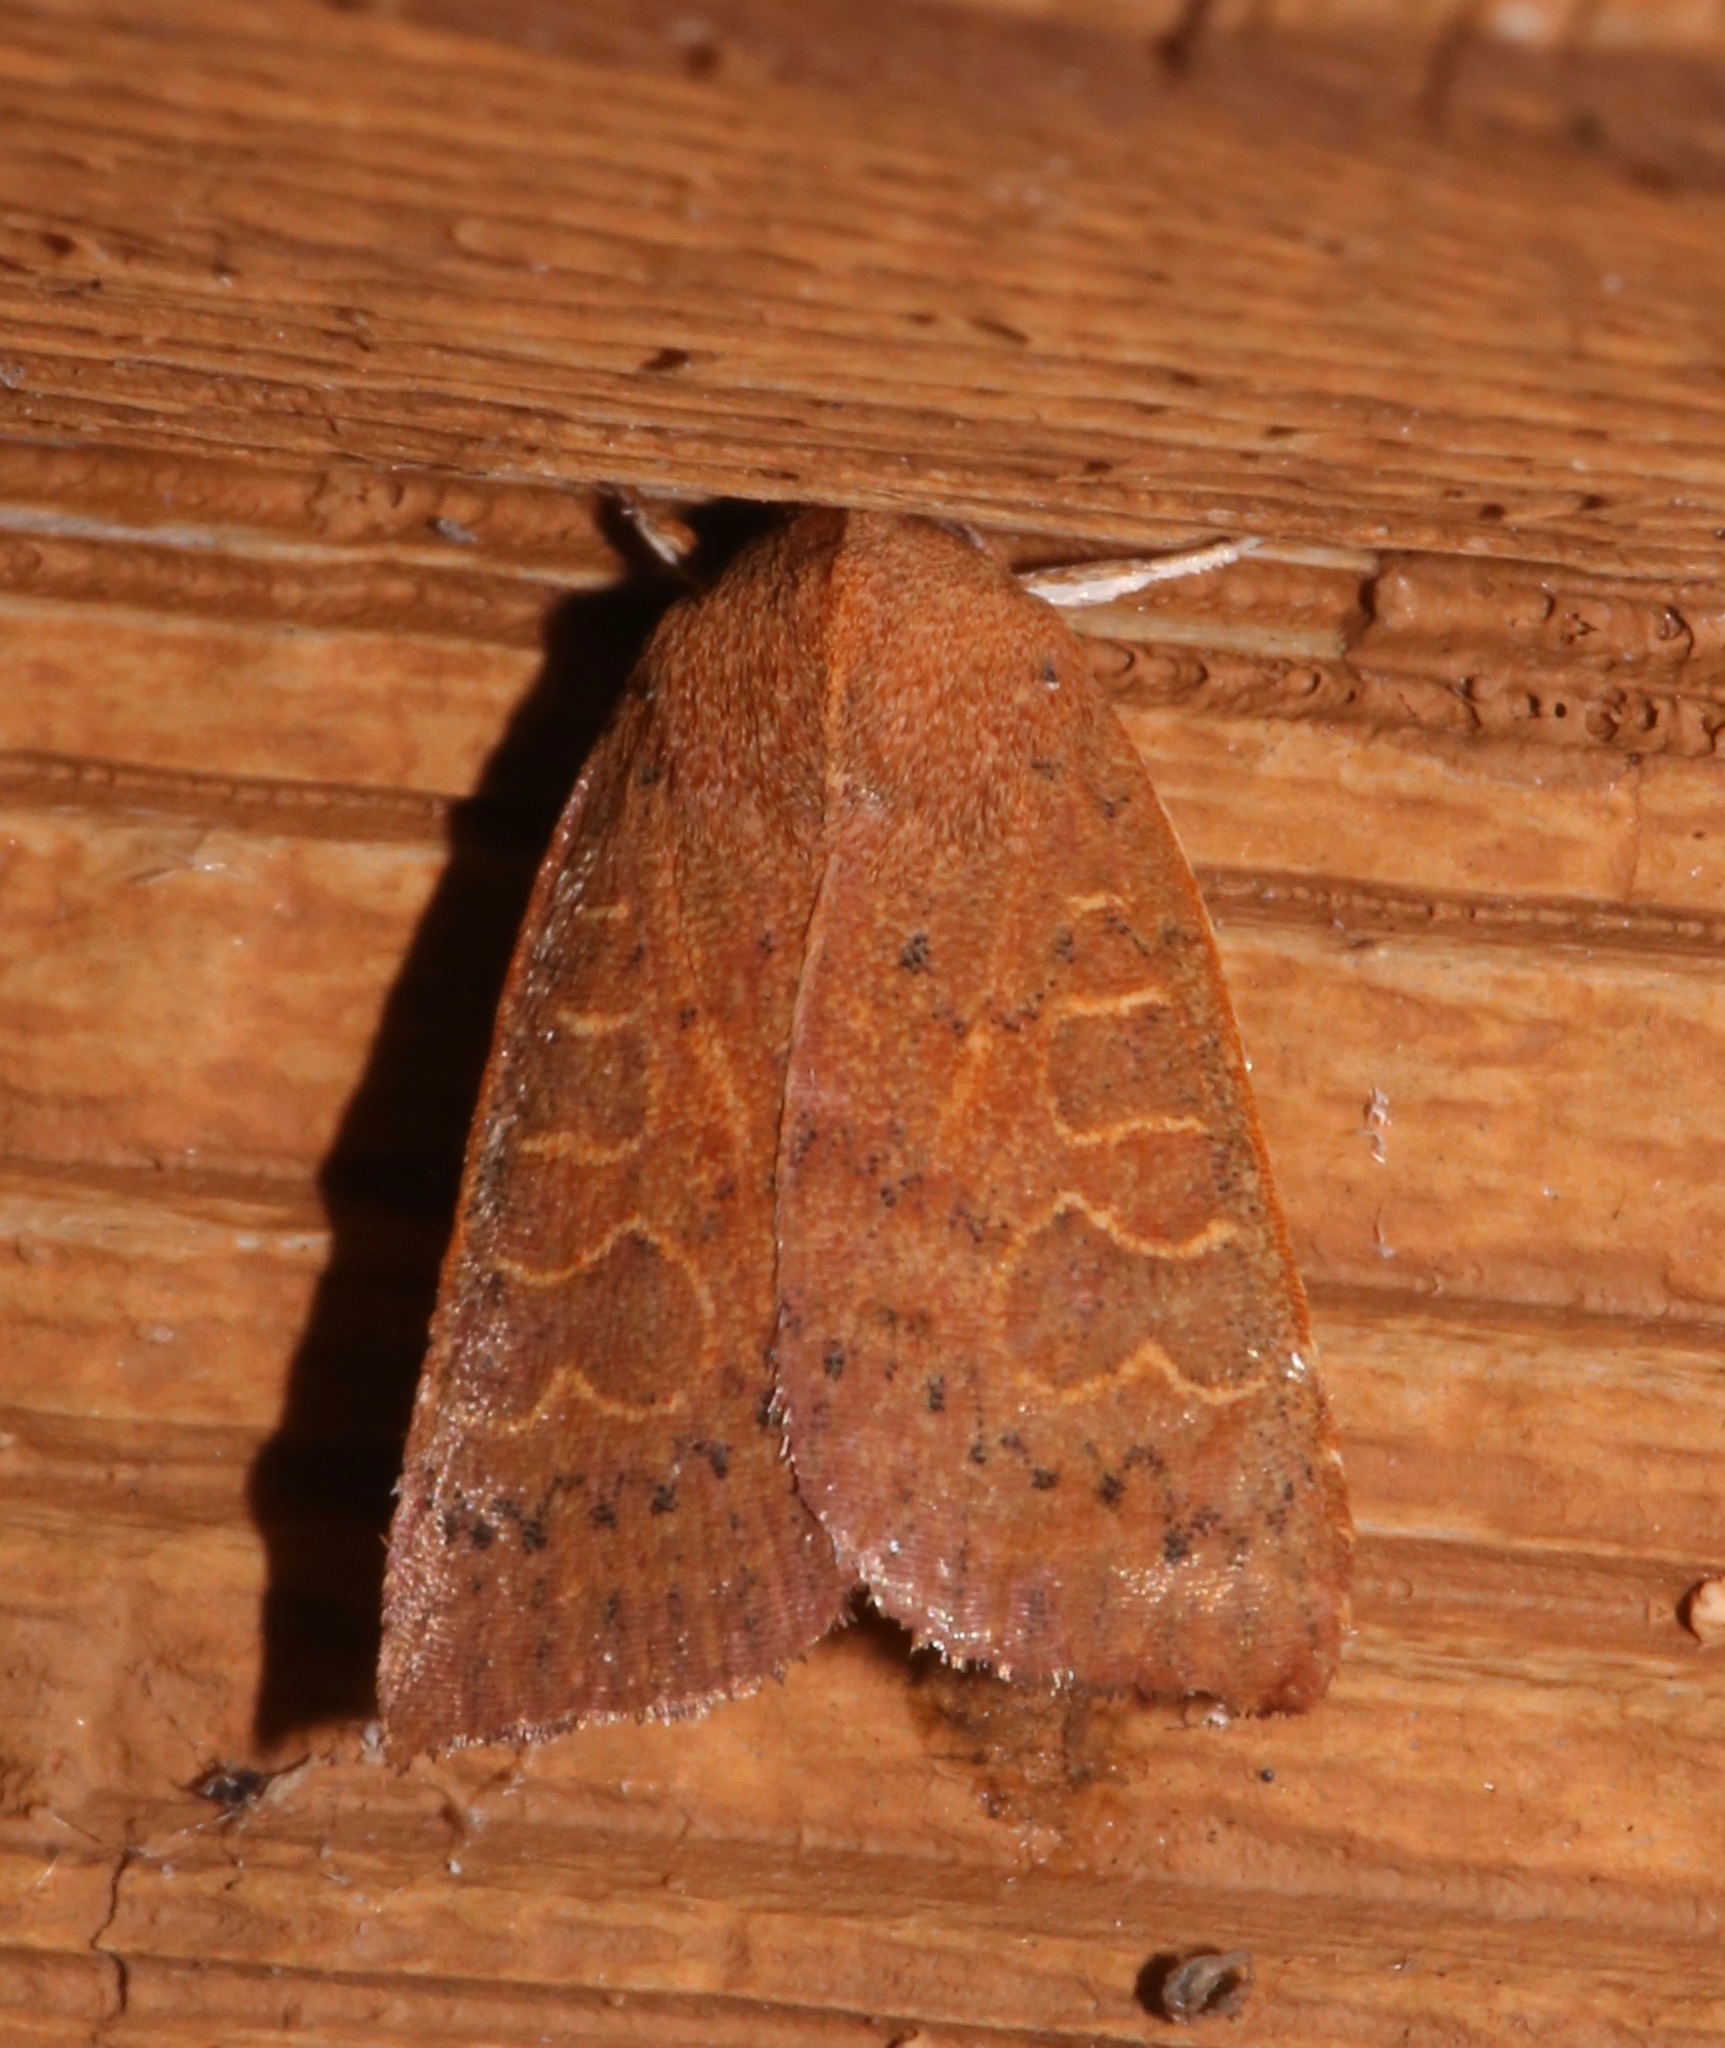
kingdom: Animalia
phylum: Arthropoda
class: Insecta
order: Lepidoptera
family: Noctuidae
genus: Xystopeplus
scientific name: Xystopeplus rufago
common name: Red-winged sallow
